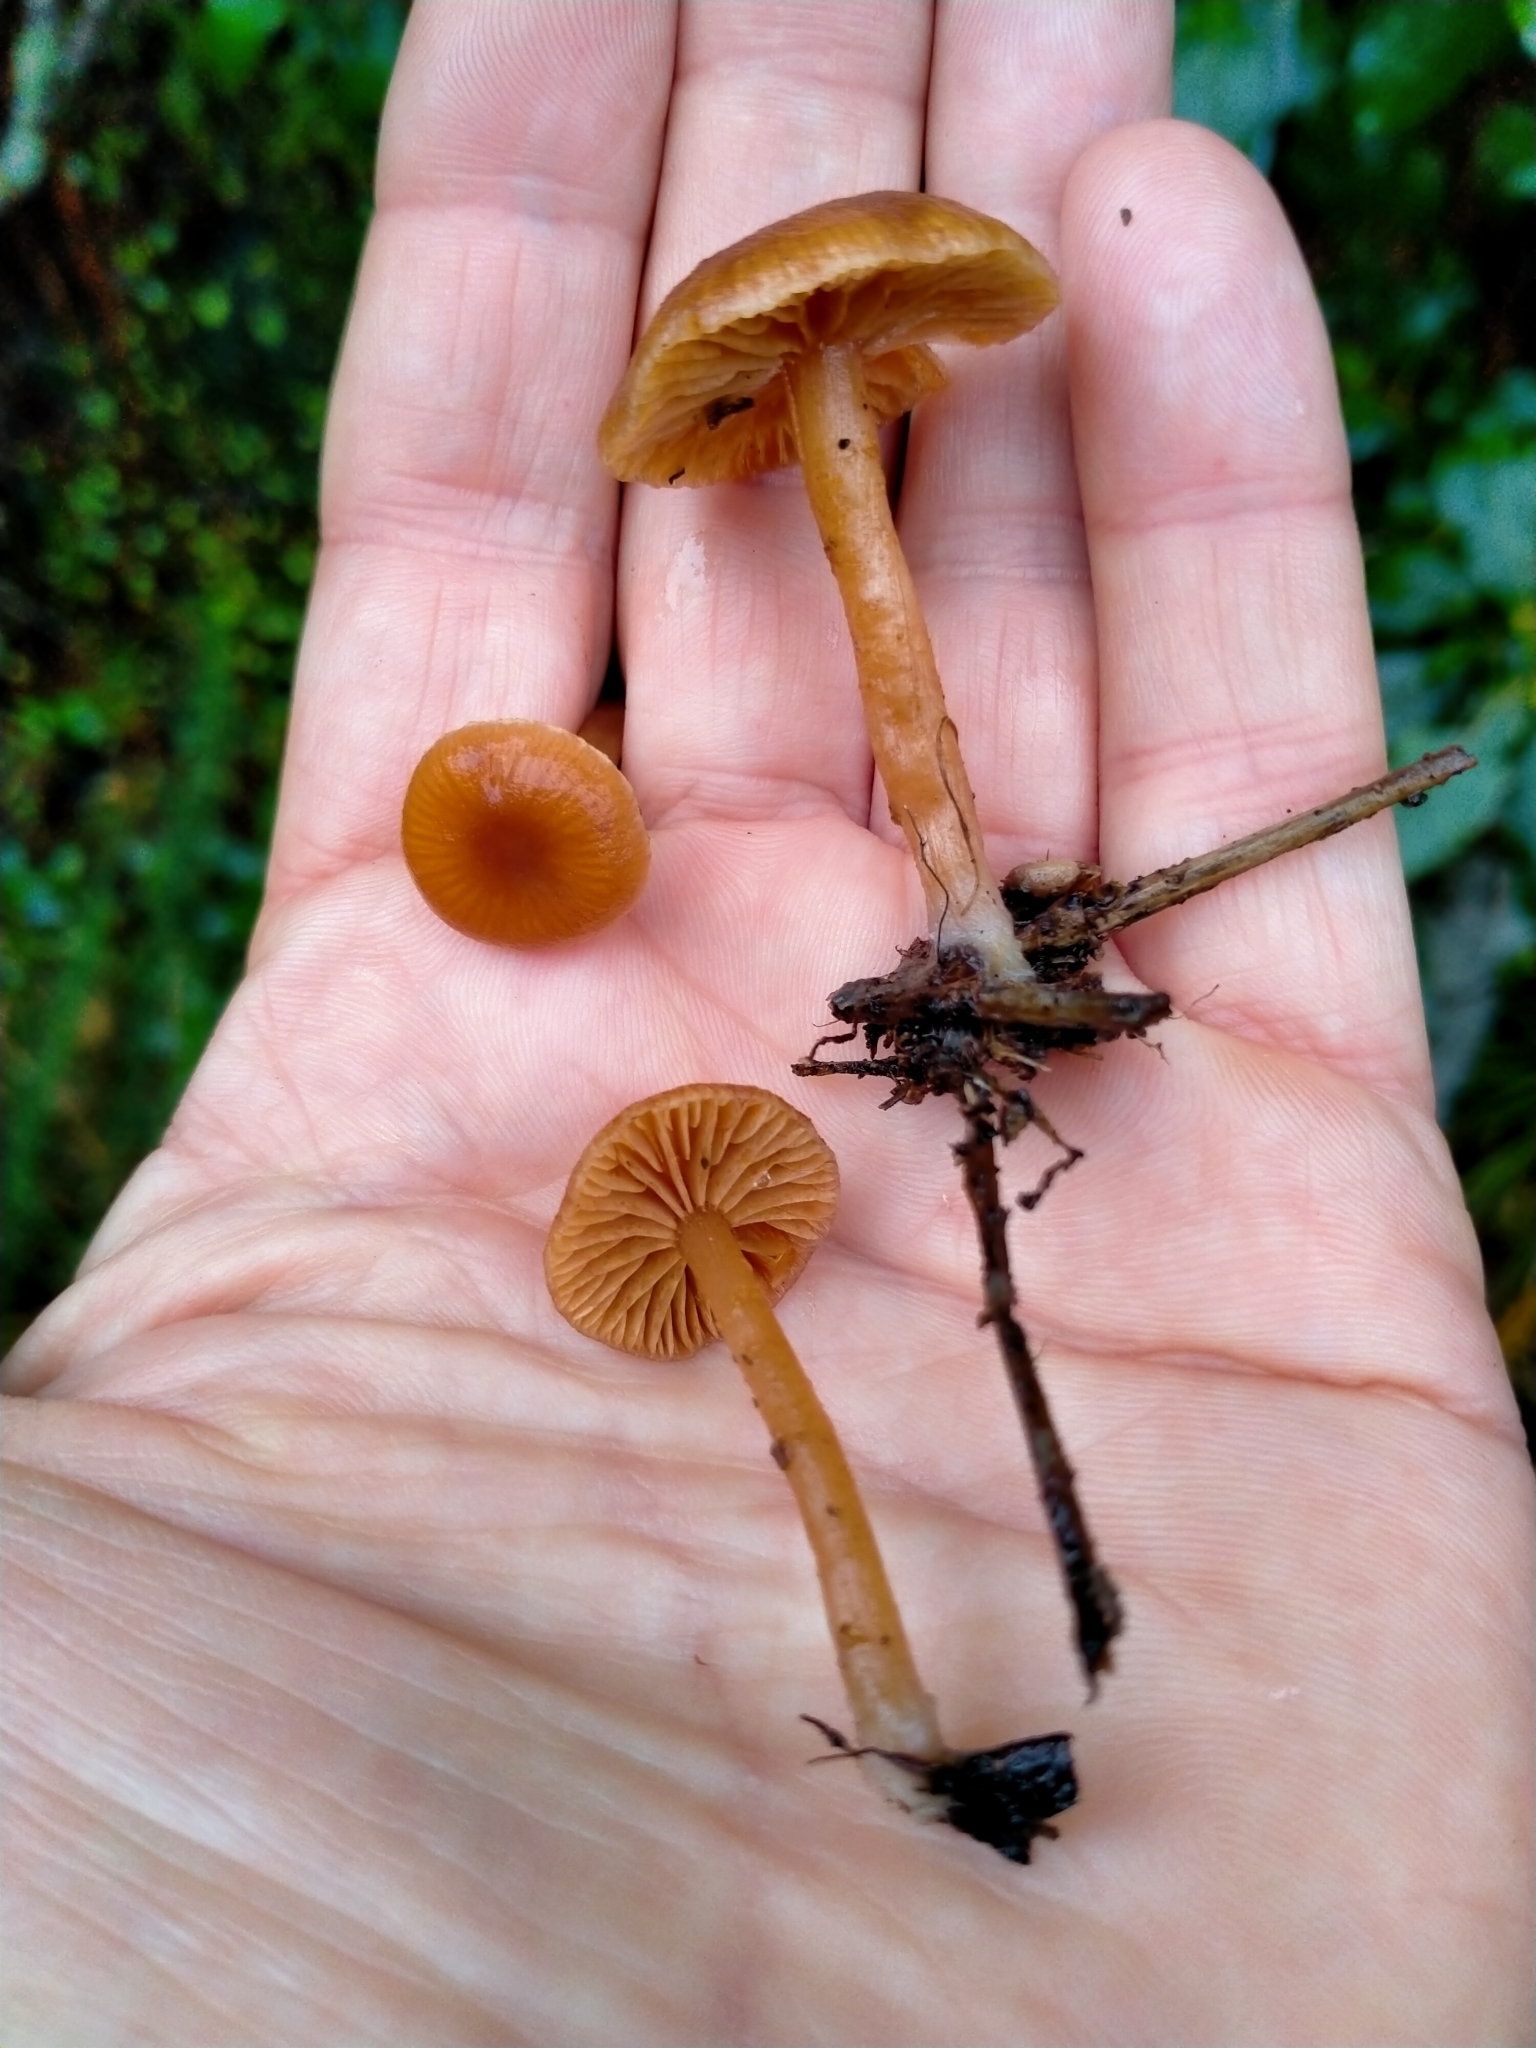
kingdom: Fungi
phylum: Basidiomycota
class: Agaricomycetes
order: Agaricales
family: Tubariaceae
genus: Tubaria
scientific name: Tubaria furfuracea
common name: Scurfy twiglet
